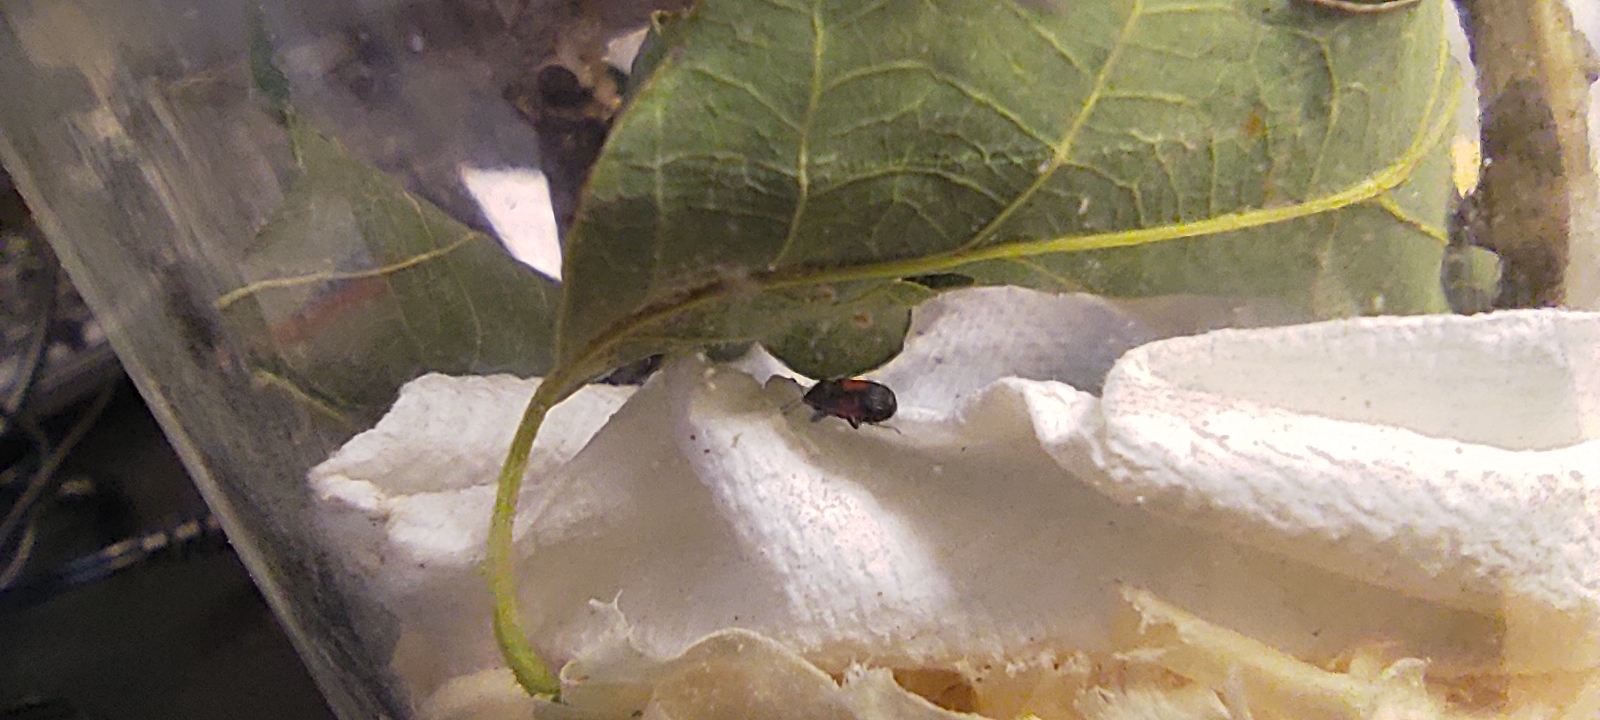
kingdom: Animalia
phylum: Arthropoda
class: Insecta
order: Coleoptera
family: Curculionidae
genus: Laemosaccus
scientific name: Laemosaccus obrieni
